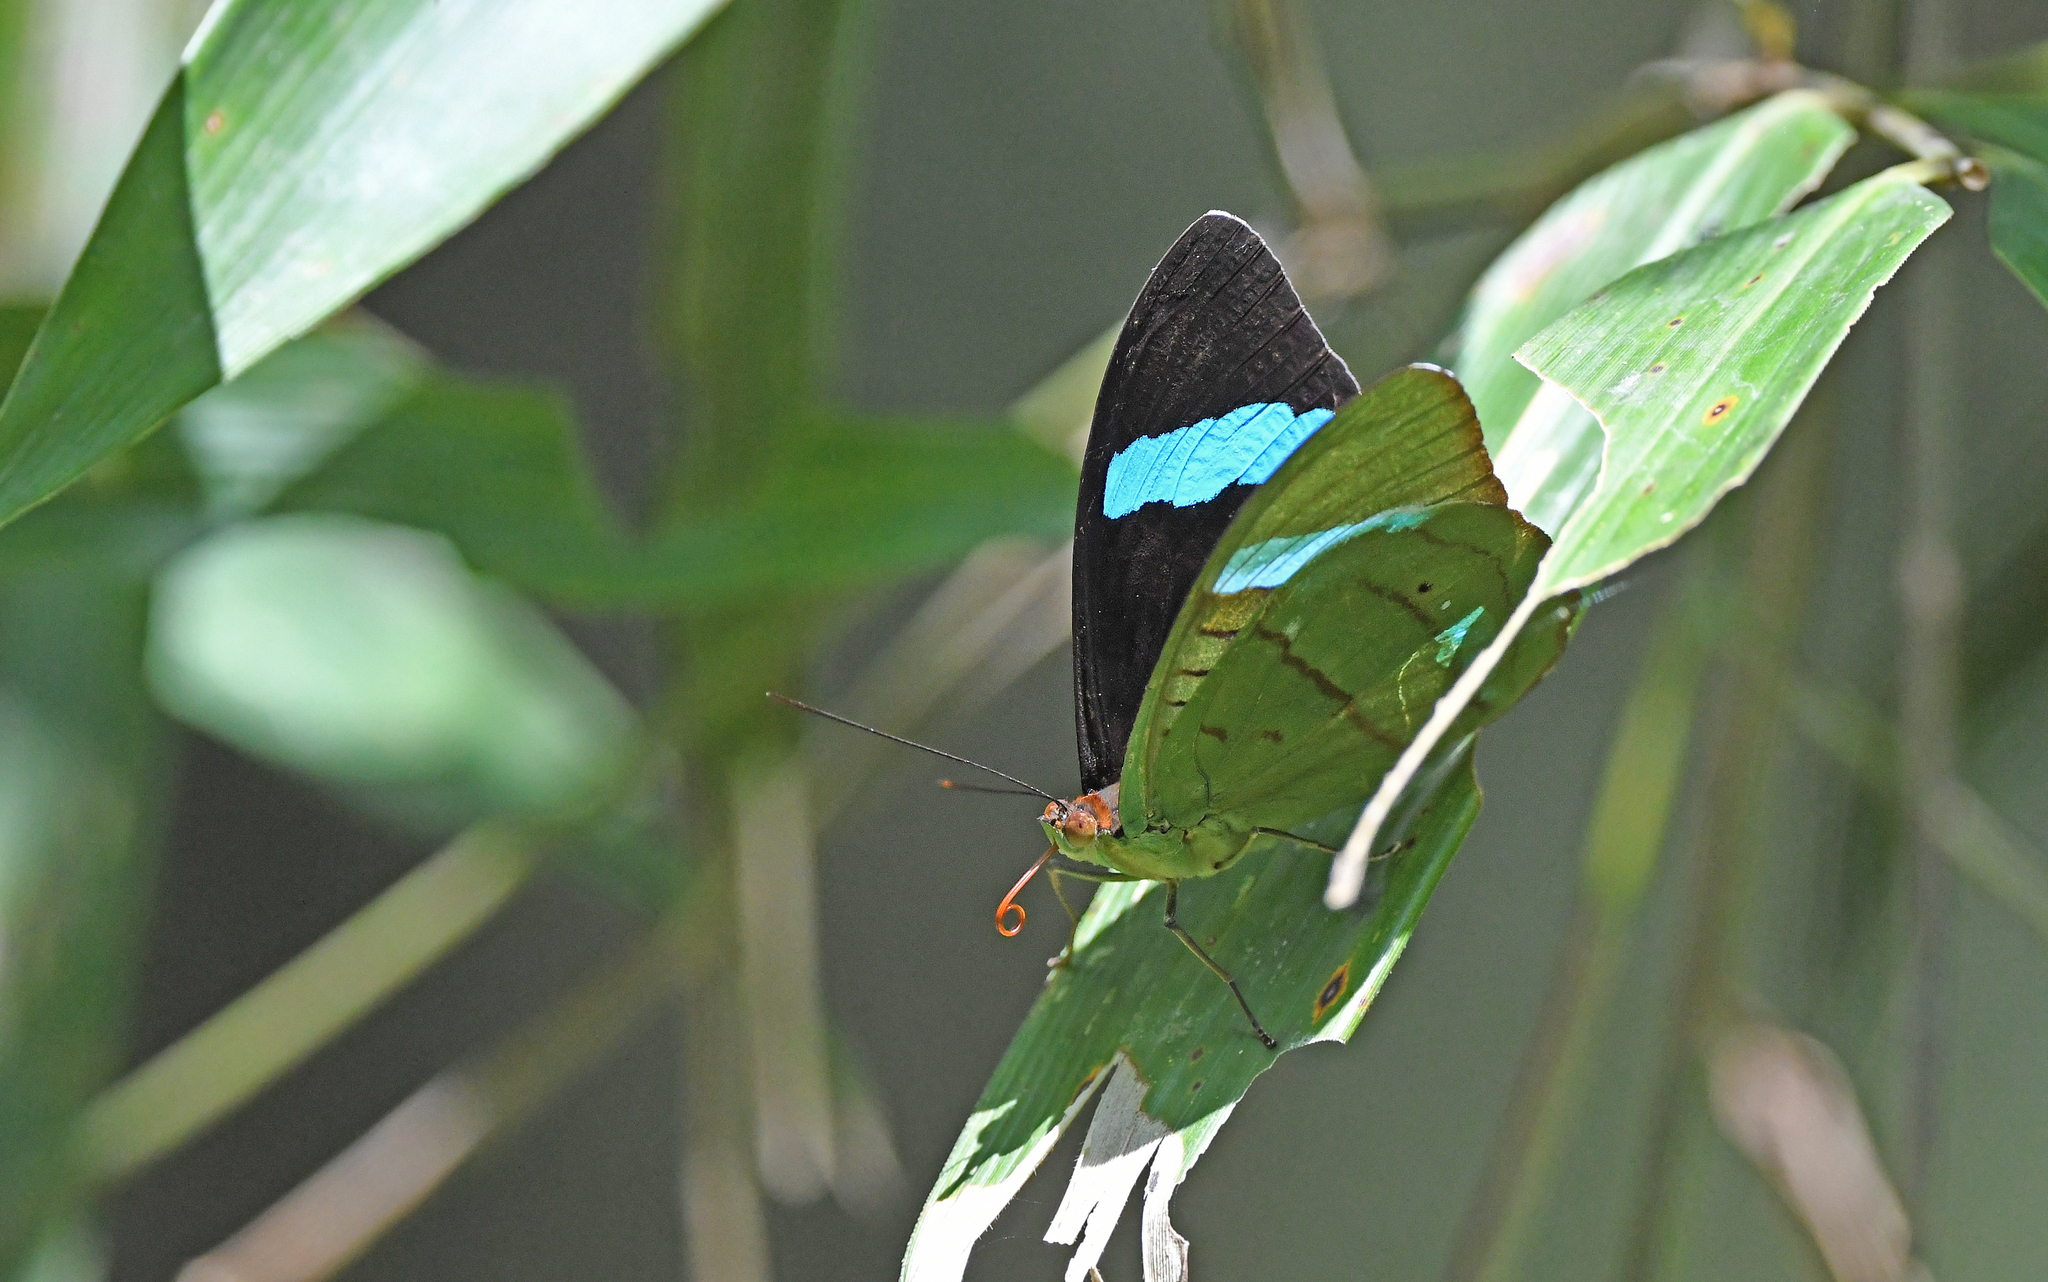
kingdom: Animalia
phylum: Arthropoda
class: Insecta
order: Lepidoptera
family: Nymphalidae
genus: Nessaea
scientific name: Nessaea hewitsonii
